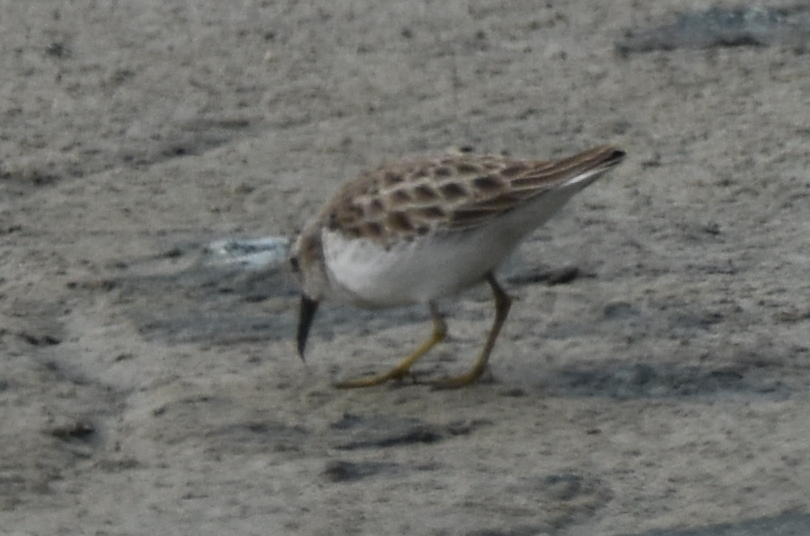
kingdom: Animalia
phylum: Chordata
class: Aves
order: Charadriiformes
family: Scolopacidae
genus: Calidris
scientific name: Calidris minutilla
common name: Least sandpiper
